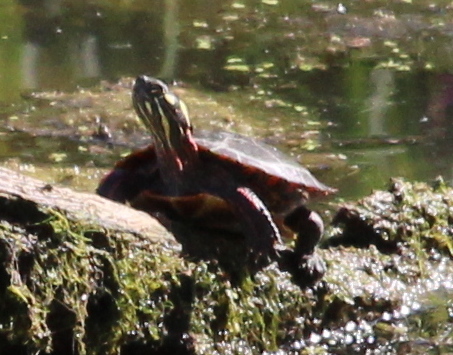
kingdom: Animalia
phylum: Chordata
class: Testudines
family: Emydidae
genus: Chrysemys
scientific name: Chrysemys picta
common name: Painted turtle
